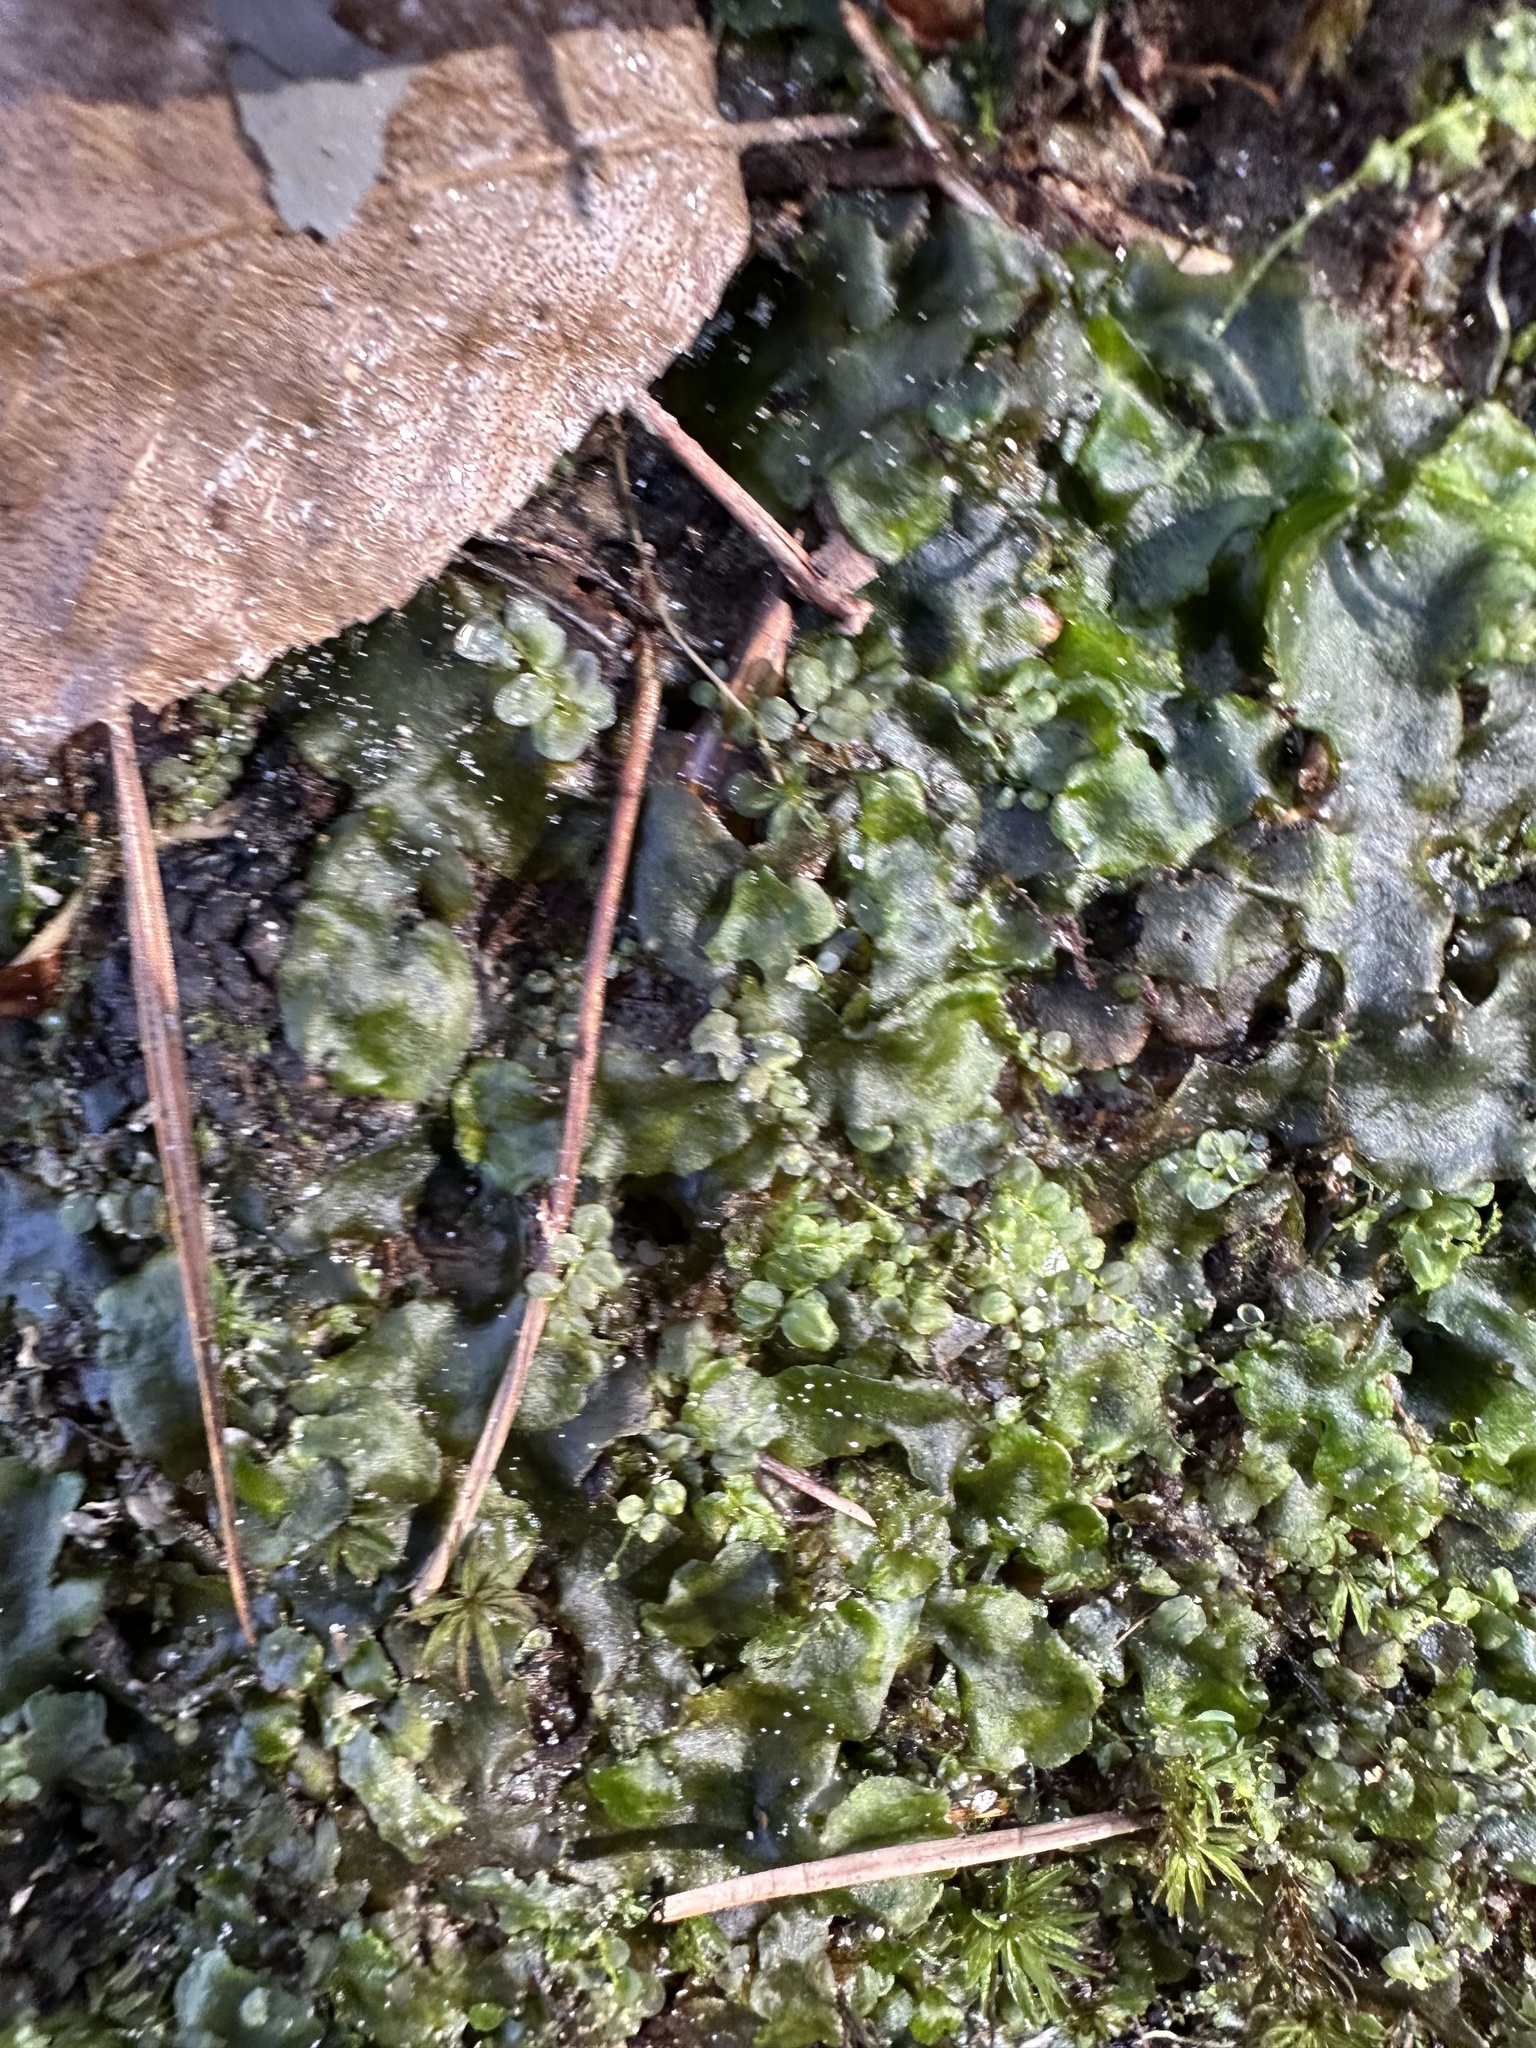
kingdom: Plantae
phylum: Marchantiophyta
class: Marchantiopsida
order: Marchantiales
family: Dumortieraceae
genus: Dumortiera
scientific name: Dumortiera hirsuta
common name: Dumortier's liverwort
